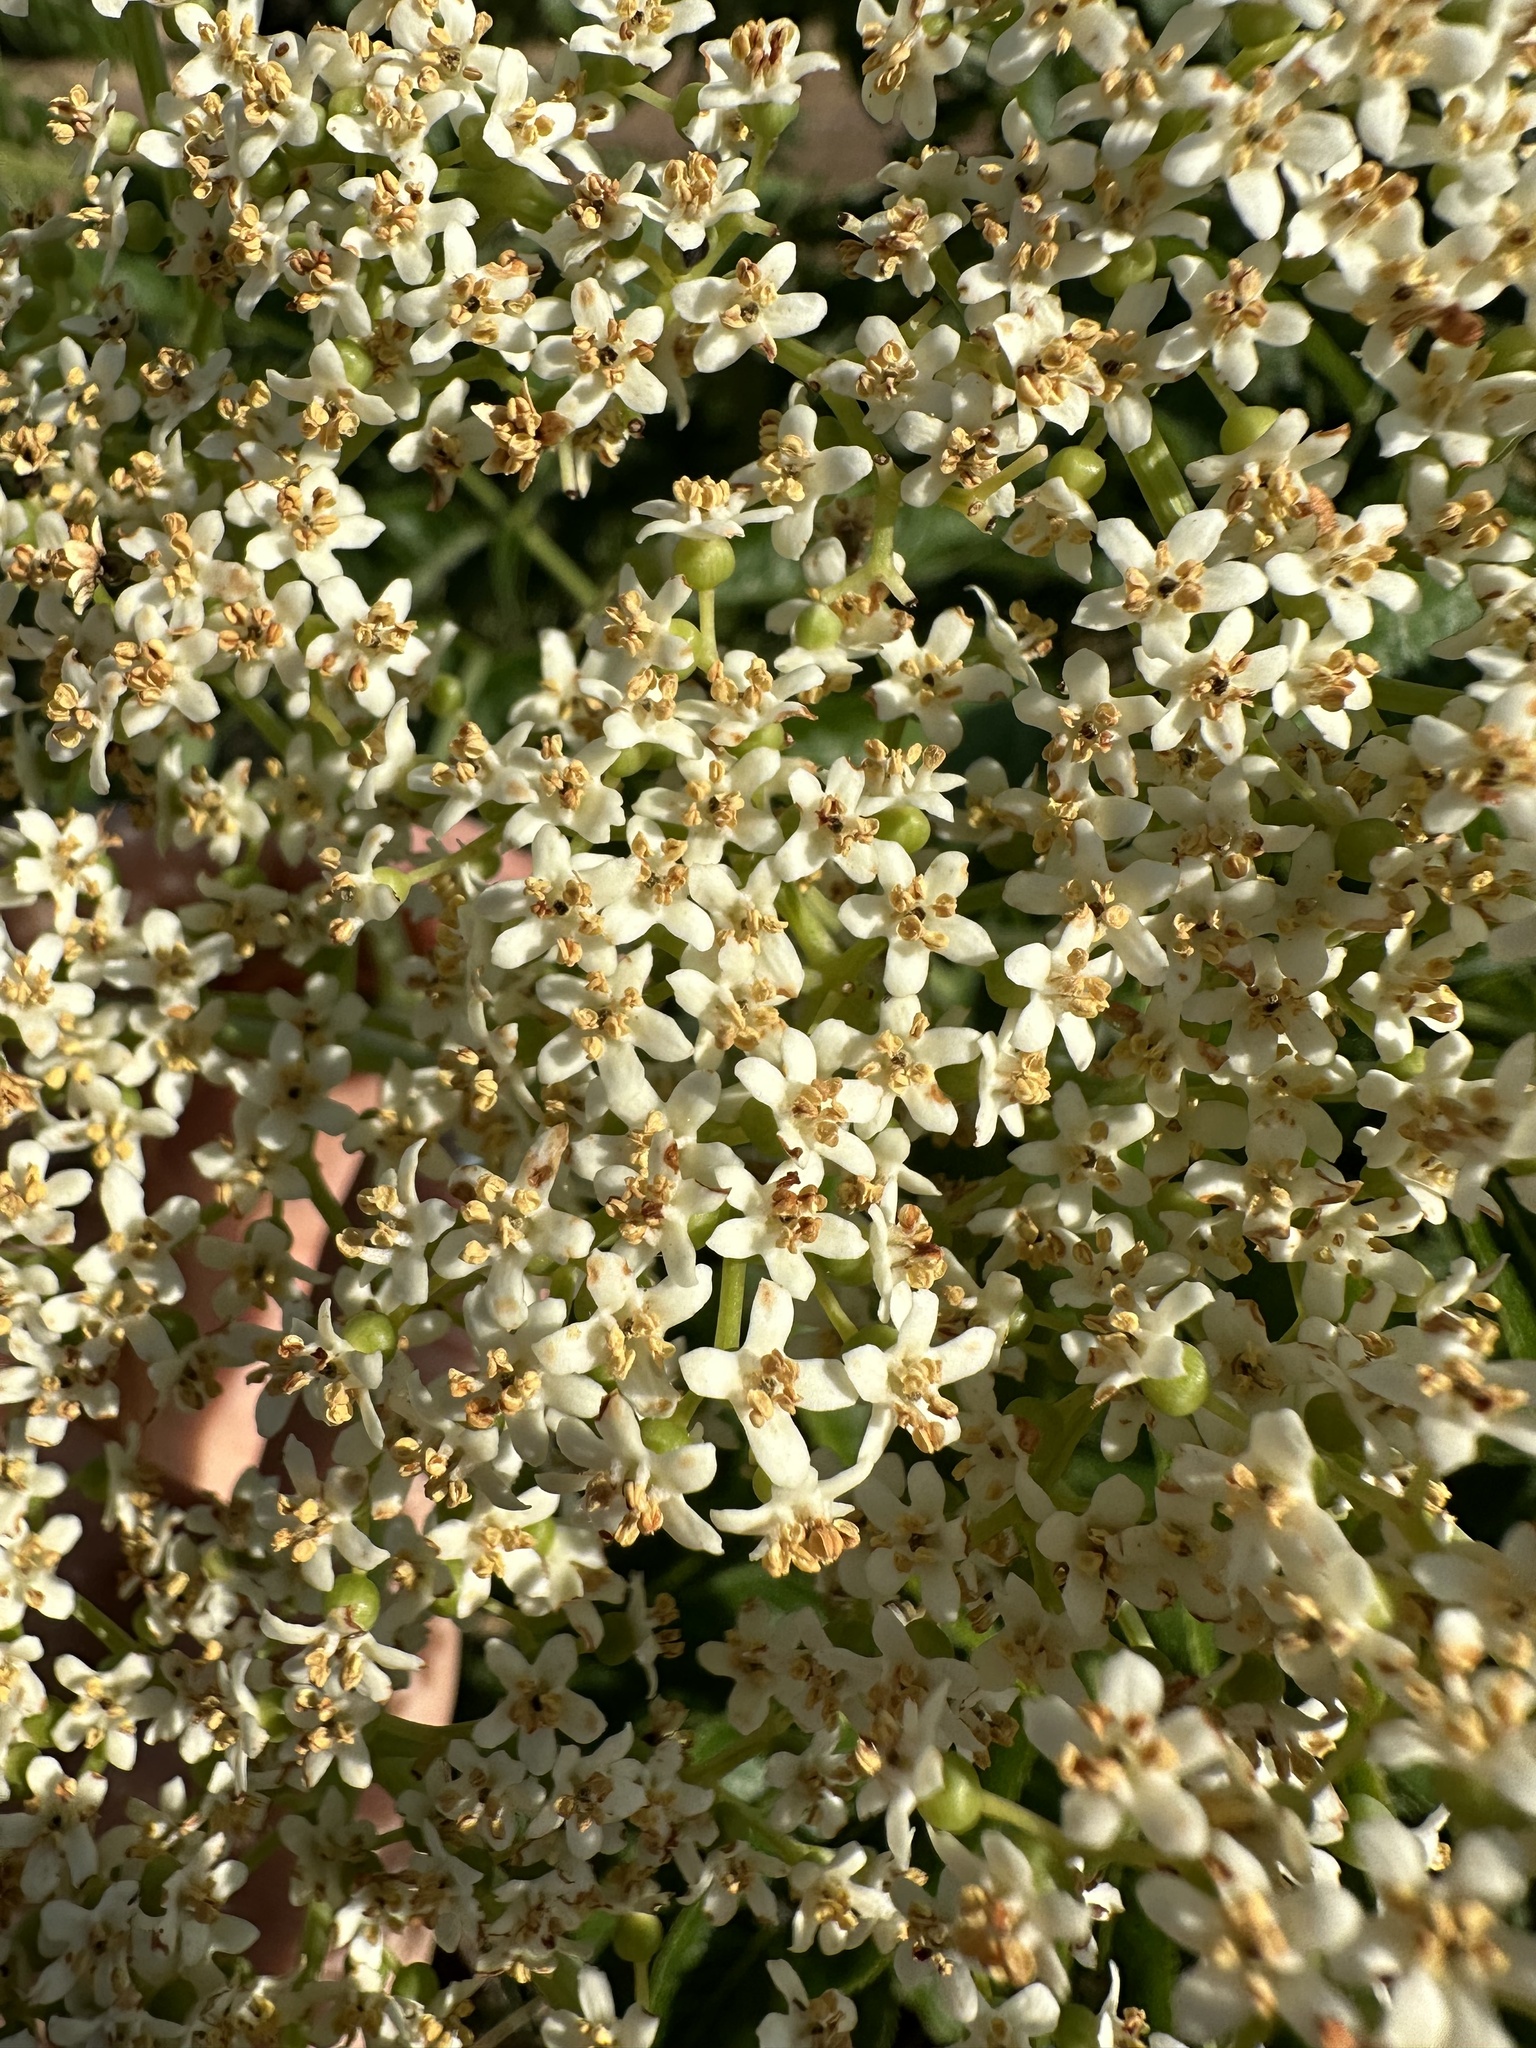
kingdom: Plantae
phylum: Tracheophyta
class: Magnoliopsida
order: Dipsacales
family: Viburnaceae
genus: Sambucus
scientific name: Sambucus cerulea
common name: Blue elder
